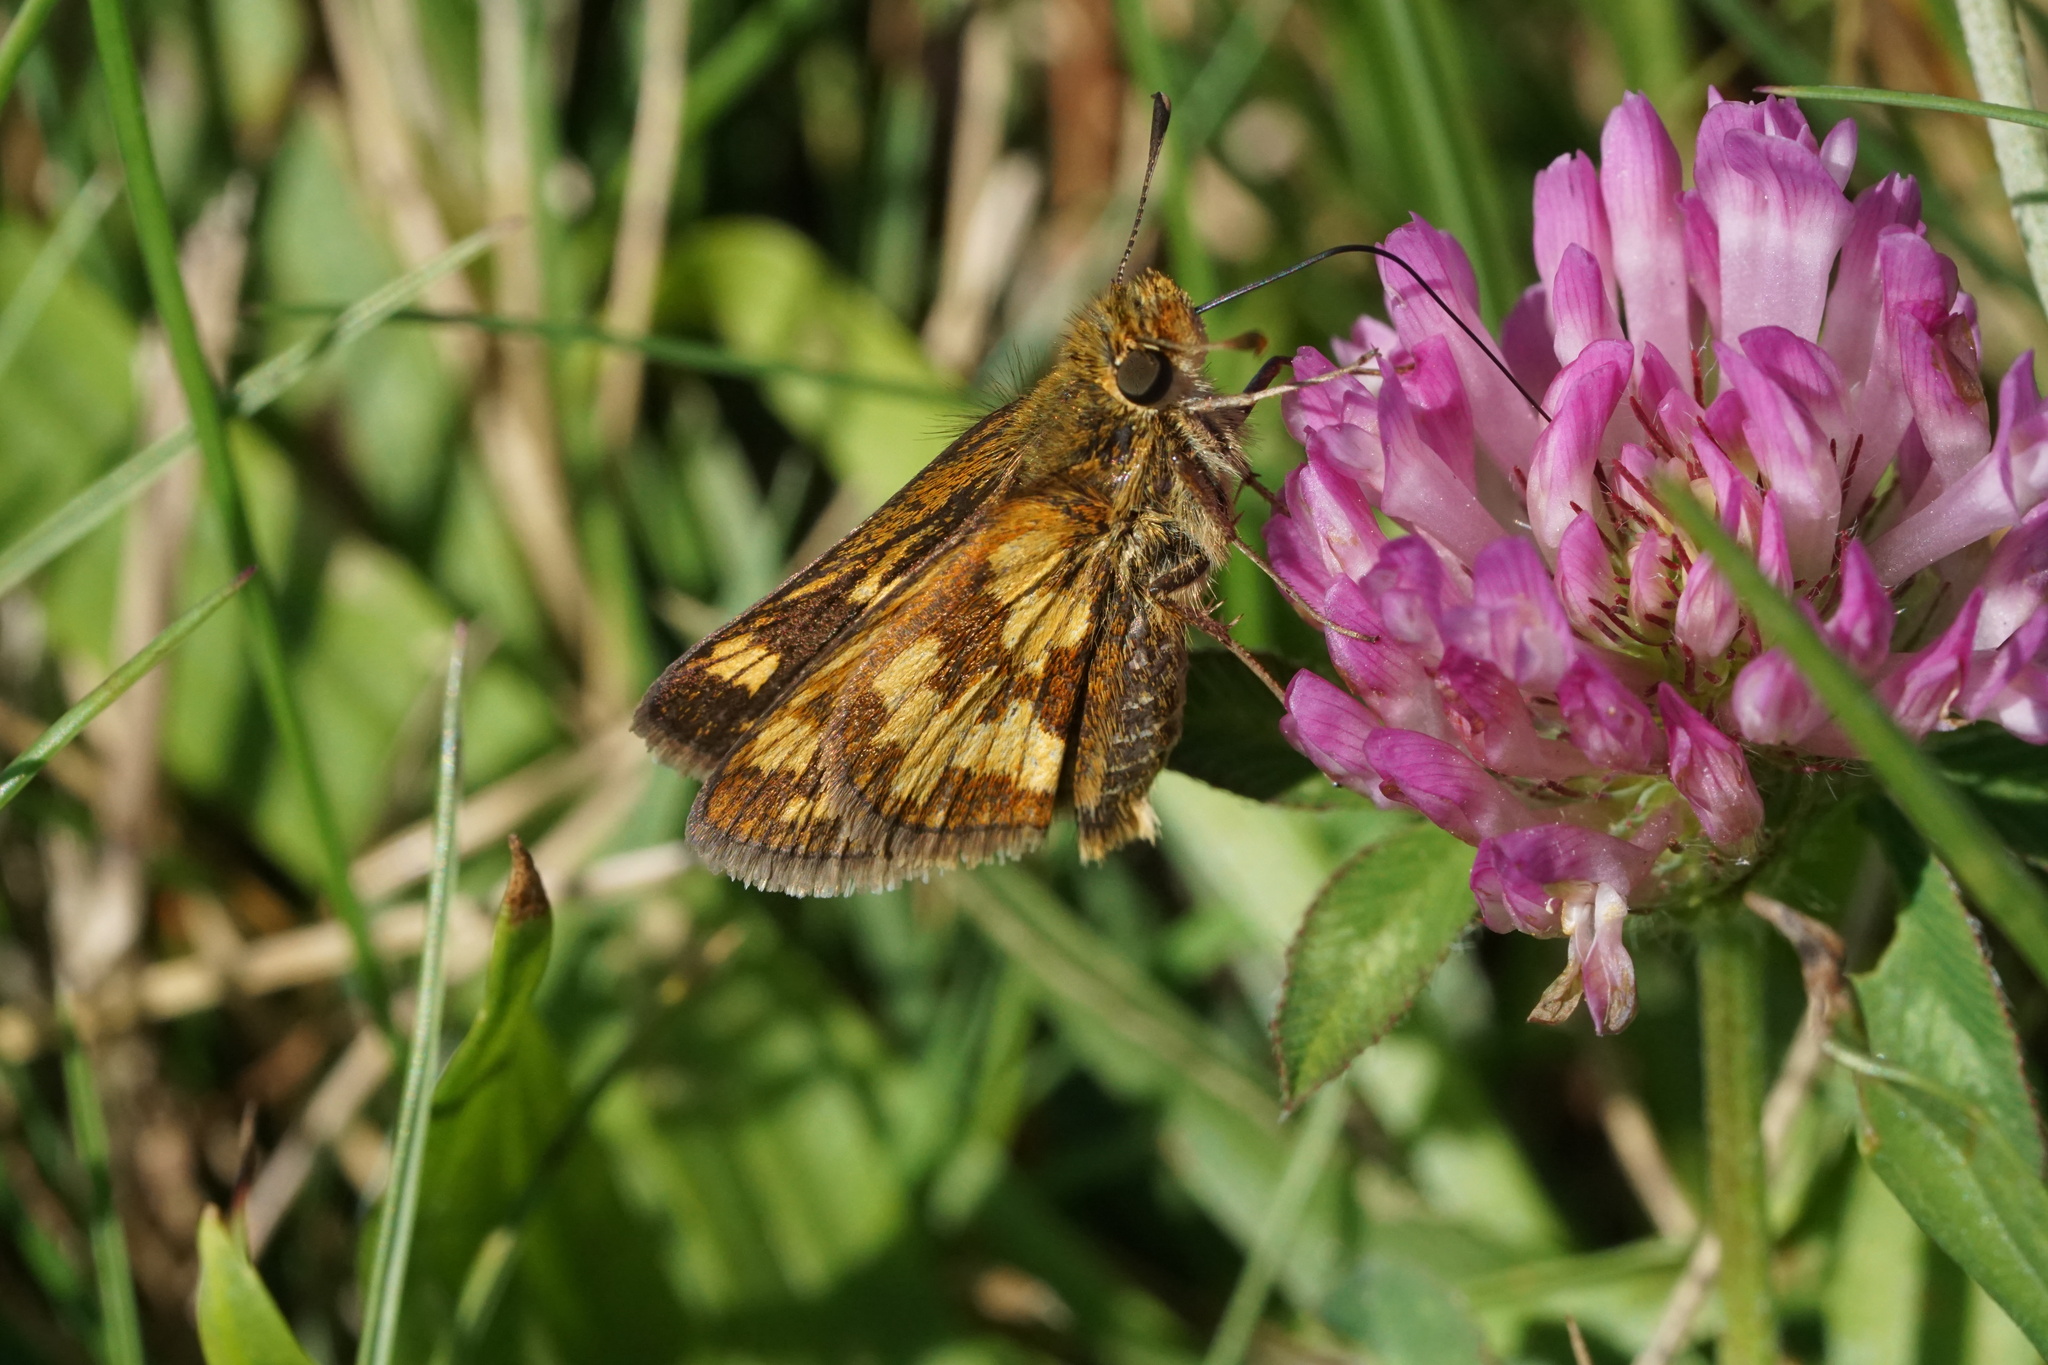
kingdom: Animalia
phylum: Arthropoda
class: Insecta
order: Lepidoptera
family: Hesperiidae
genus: Polites
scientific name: Polites coras
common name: Peck's skipper
